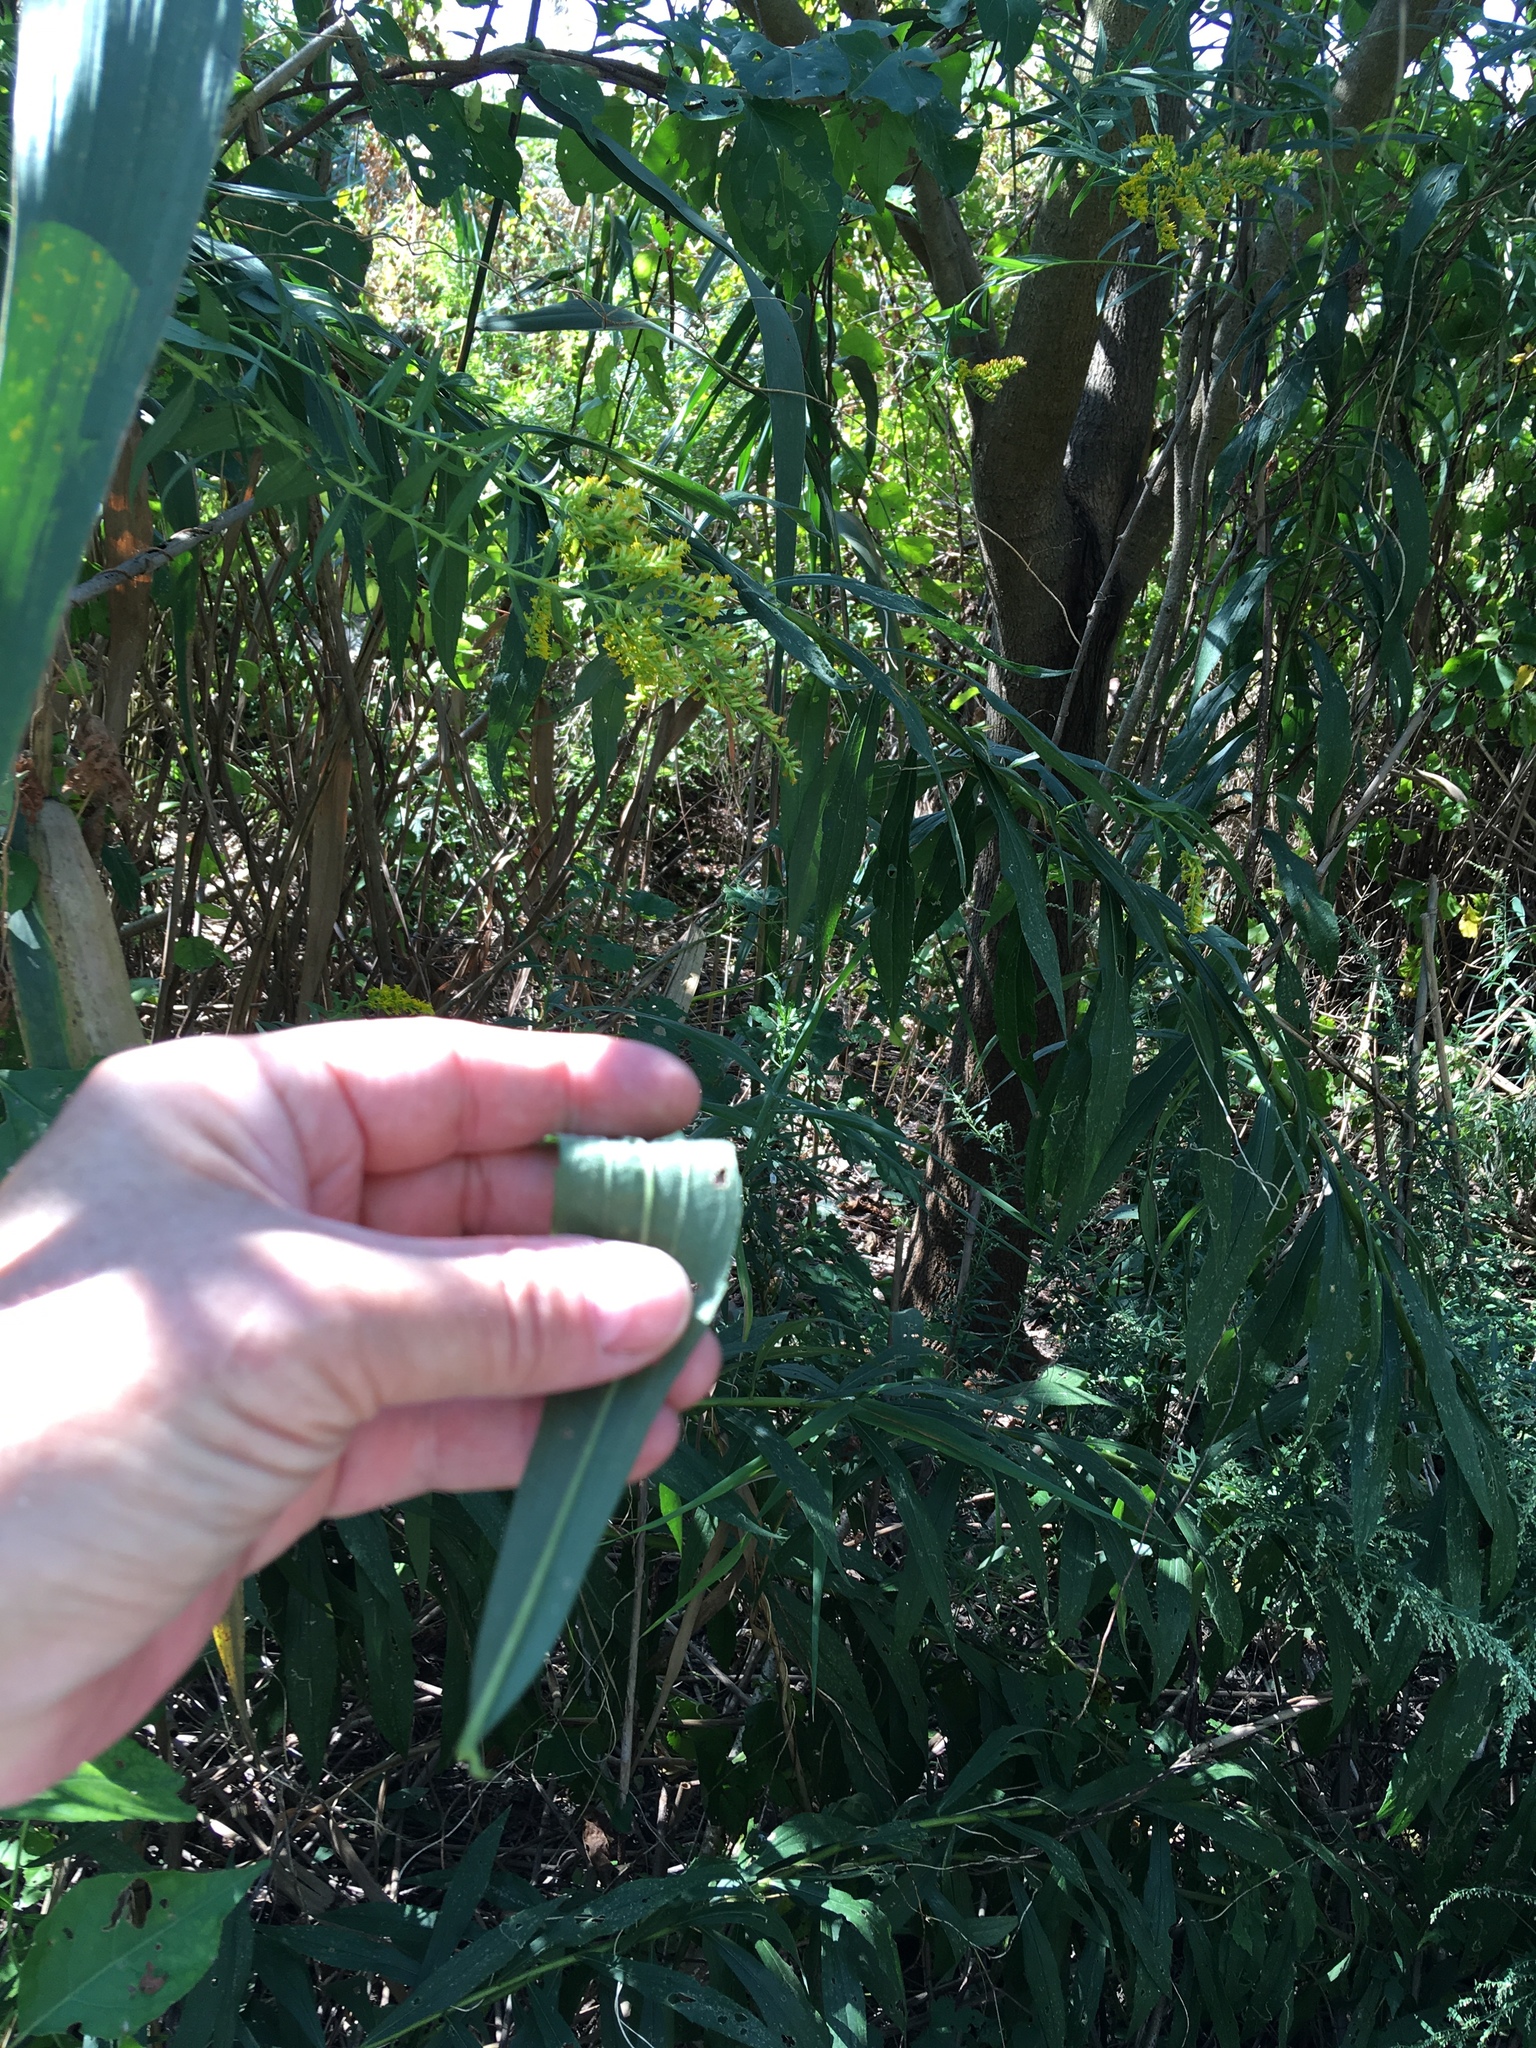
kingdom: Plantae
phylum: Tracheophyta
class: Magnoliopsida
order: Asterales
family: Asteraceae
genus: Solidago
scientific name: Solidago altissima
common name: Late goldenrod
